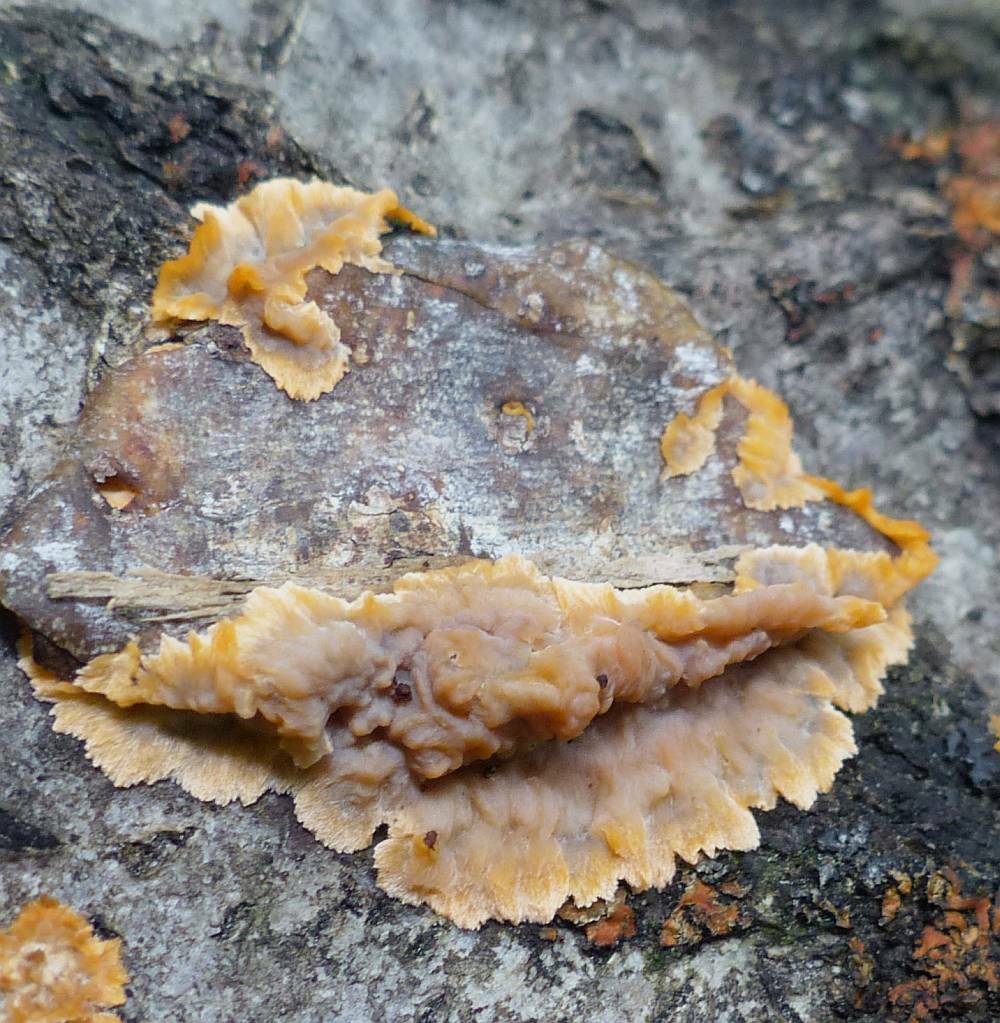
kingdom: Fungi
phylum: Basidiomycota
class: Agaricomycetes
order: Polyporales
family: Meruliaceae
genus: Phlebia
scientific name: Phlebia radiata
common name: Wrinkled crust
